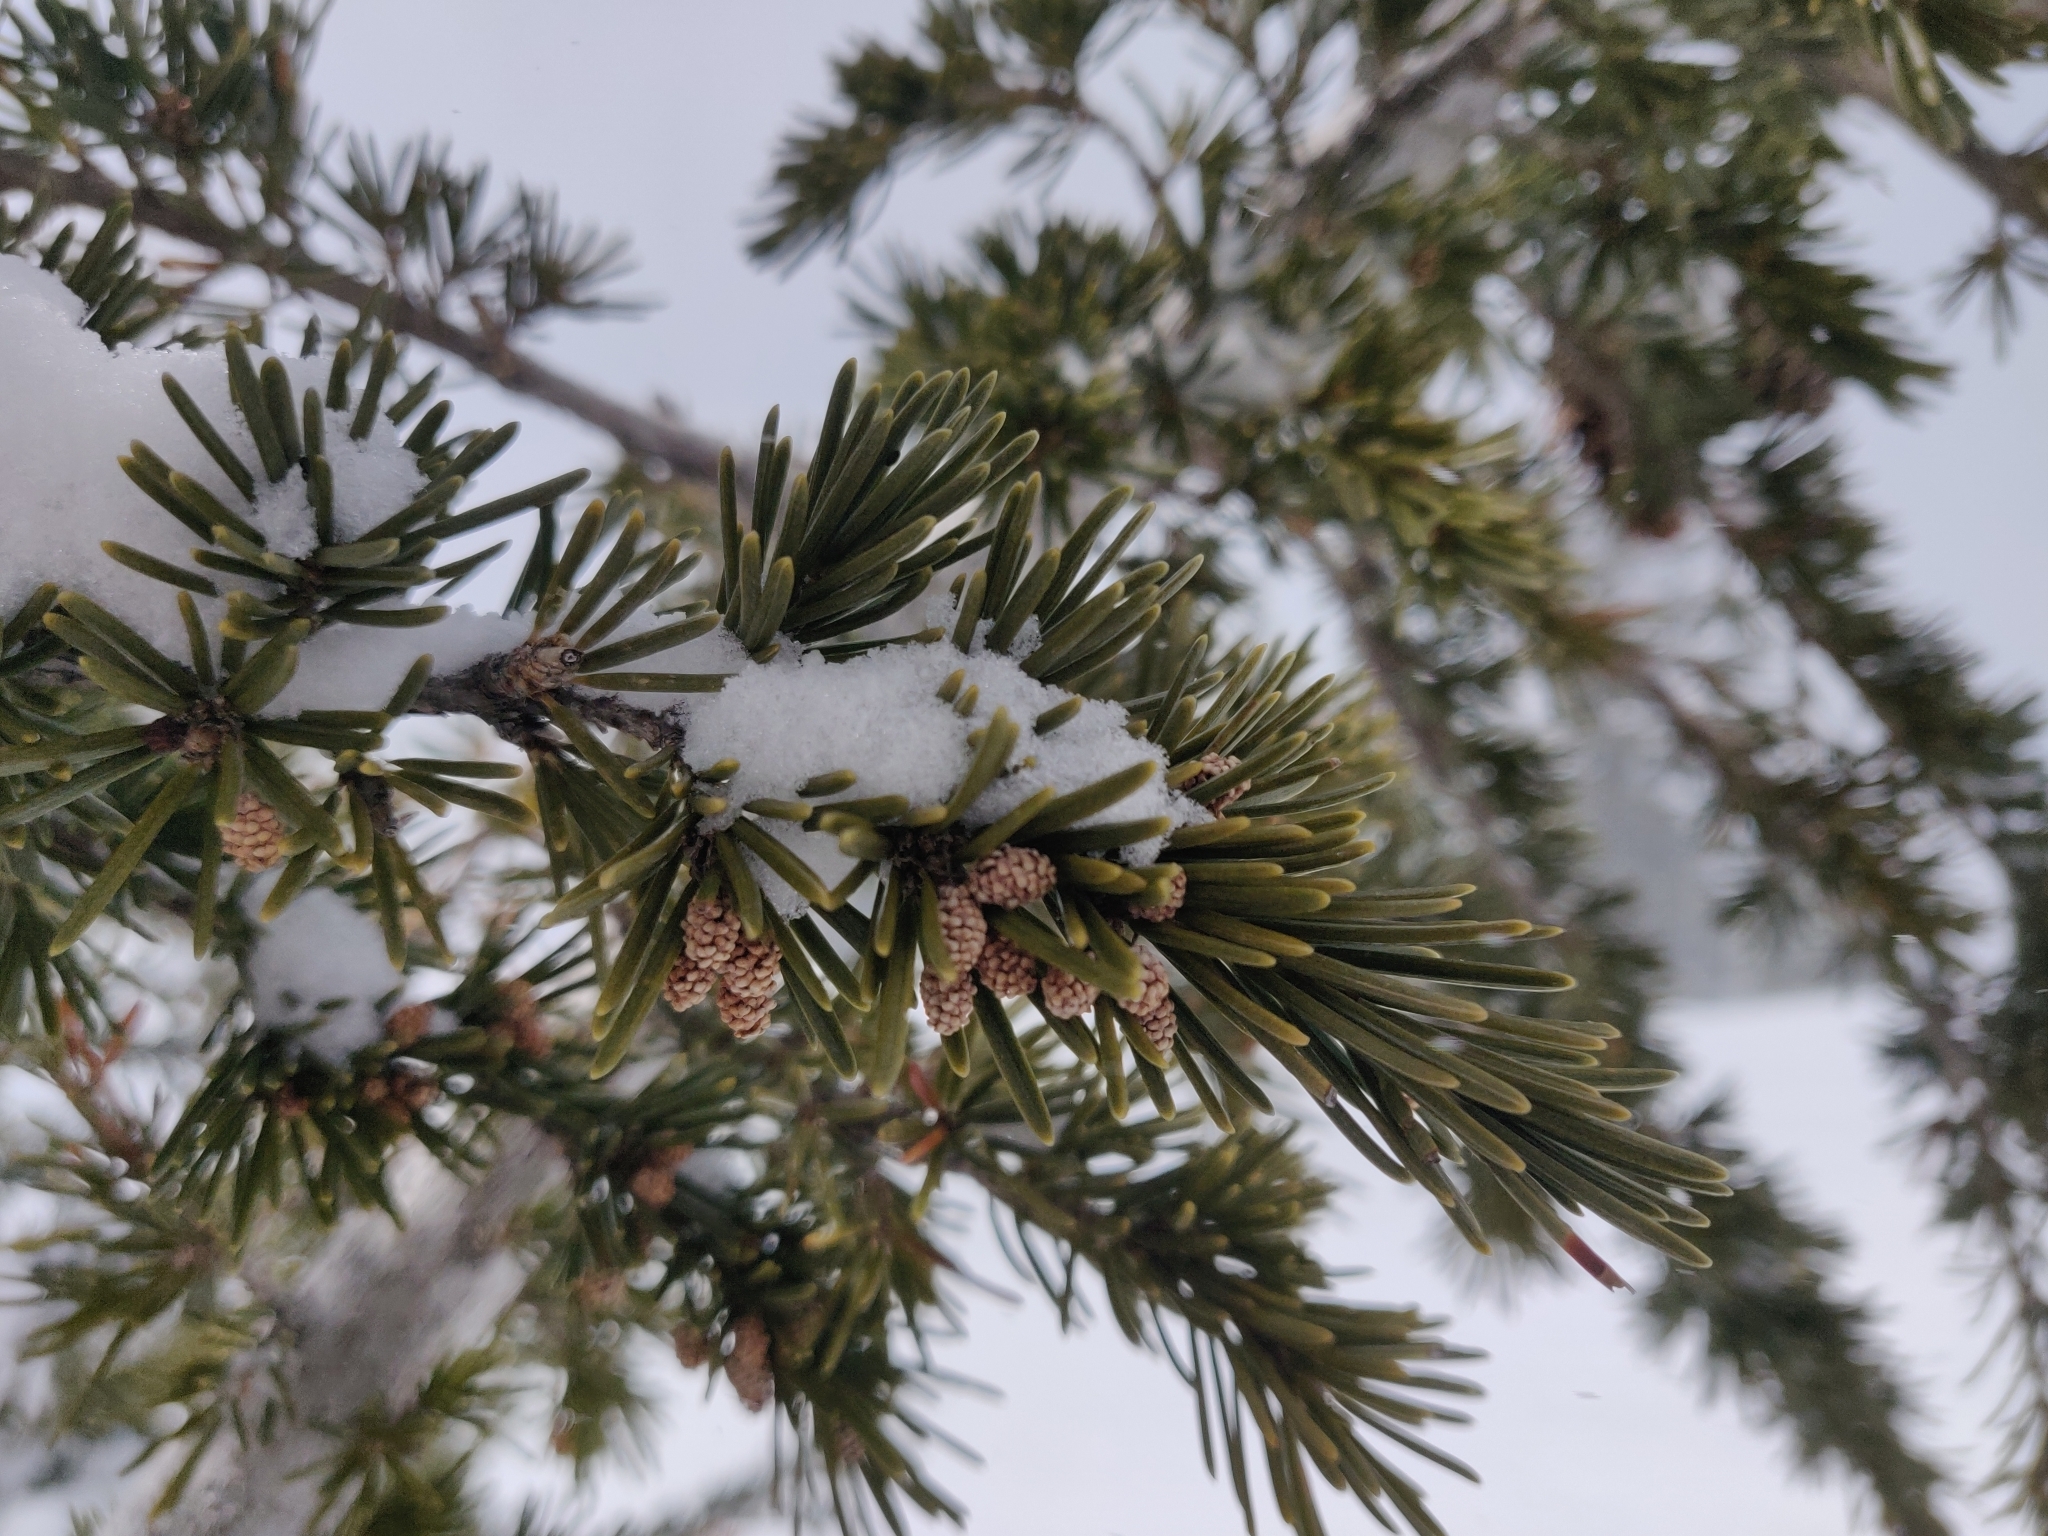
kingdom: Plantae
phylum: Tracheophyta
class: Pinopsida
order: Pinales
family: Pinaceae
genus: Tsuga
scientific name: Tsuga mertensiana
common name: Mountain hemlock
